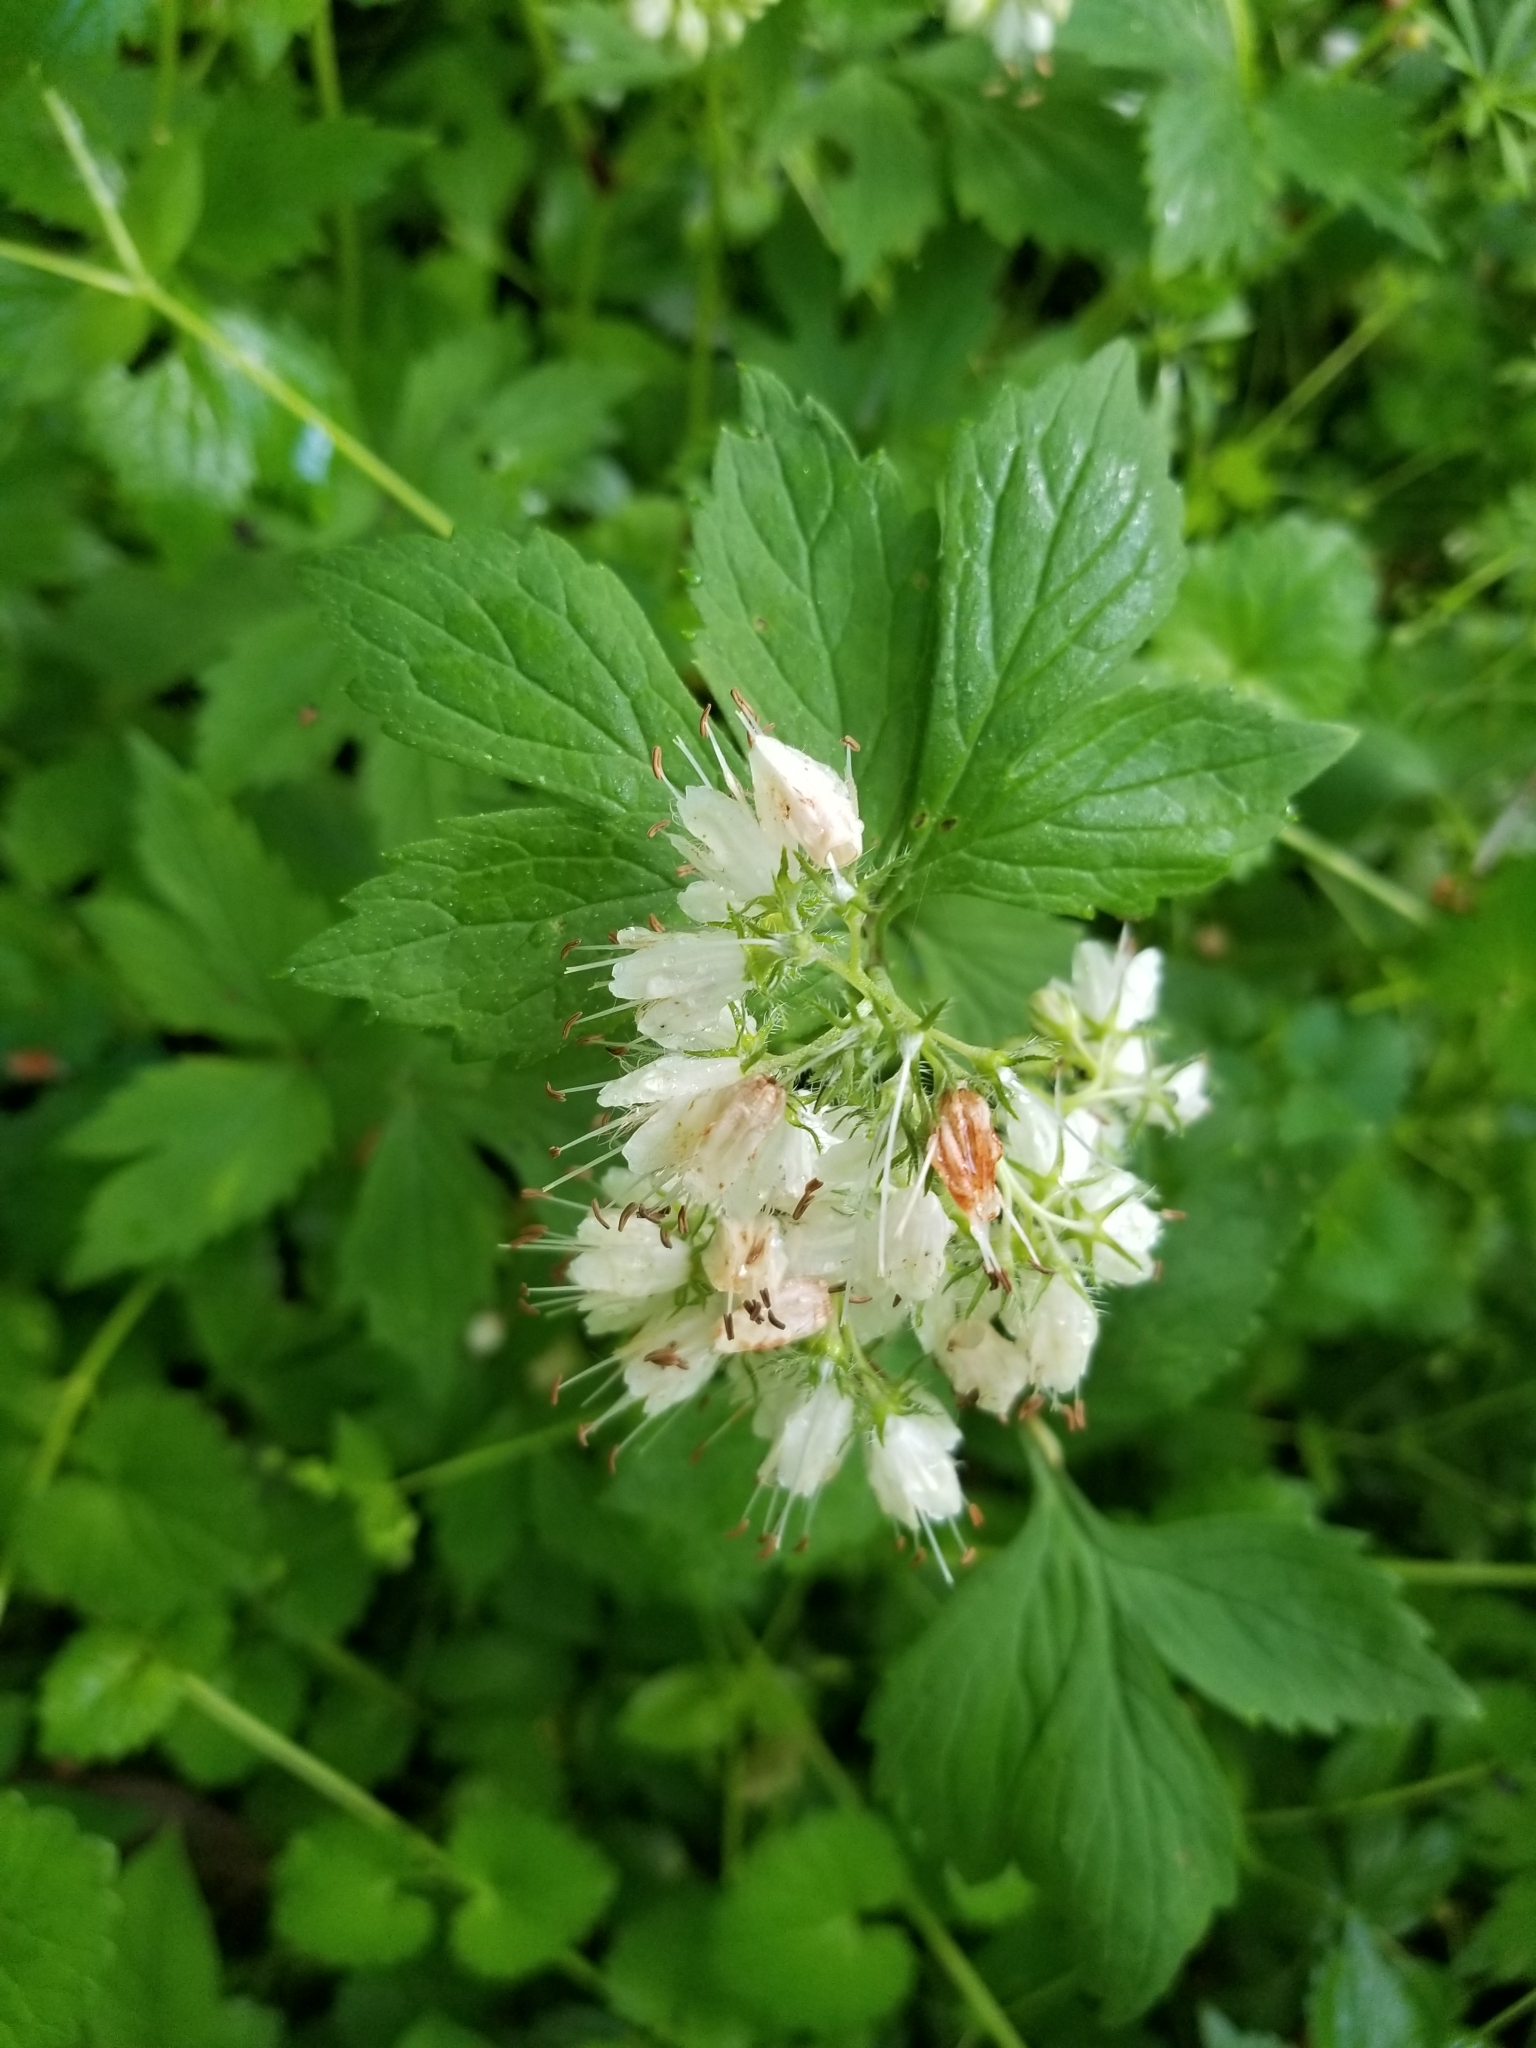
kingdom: Plantae
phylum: Tracheophyta
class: Magnoliopsida
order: Boraginales
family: Hydrophyllaceae
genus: Hydrophyllum
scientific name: Hydrophyllum virginianum
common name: Virginia waterleaf
